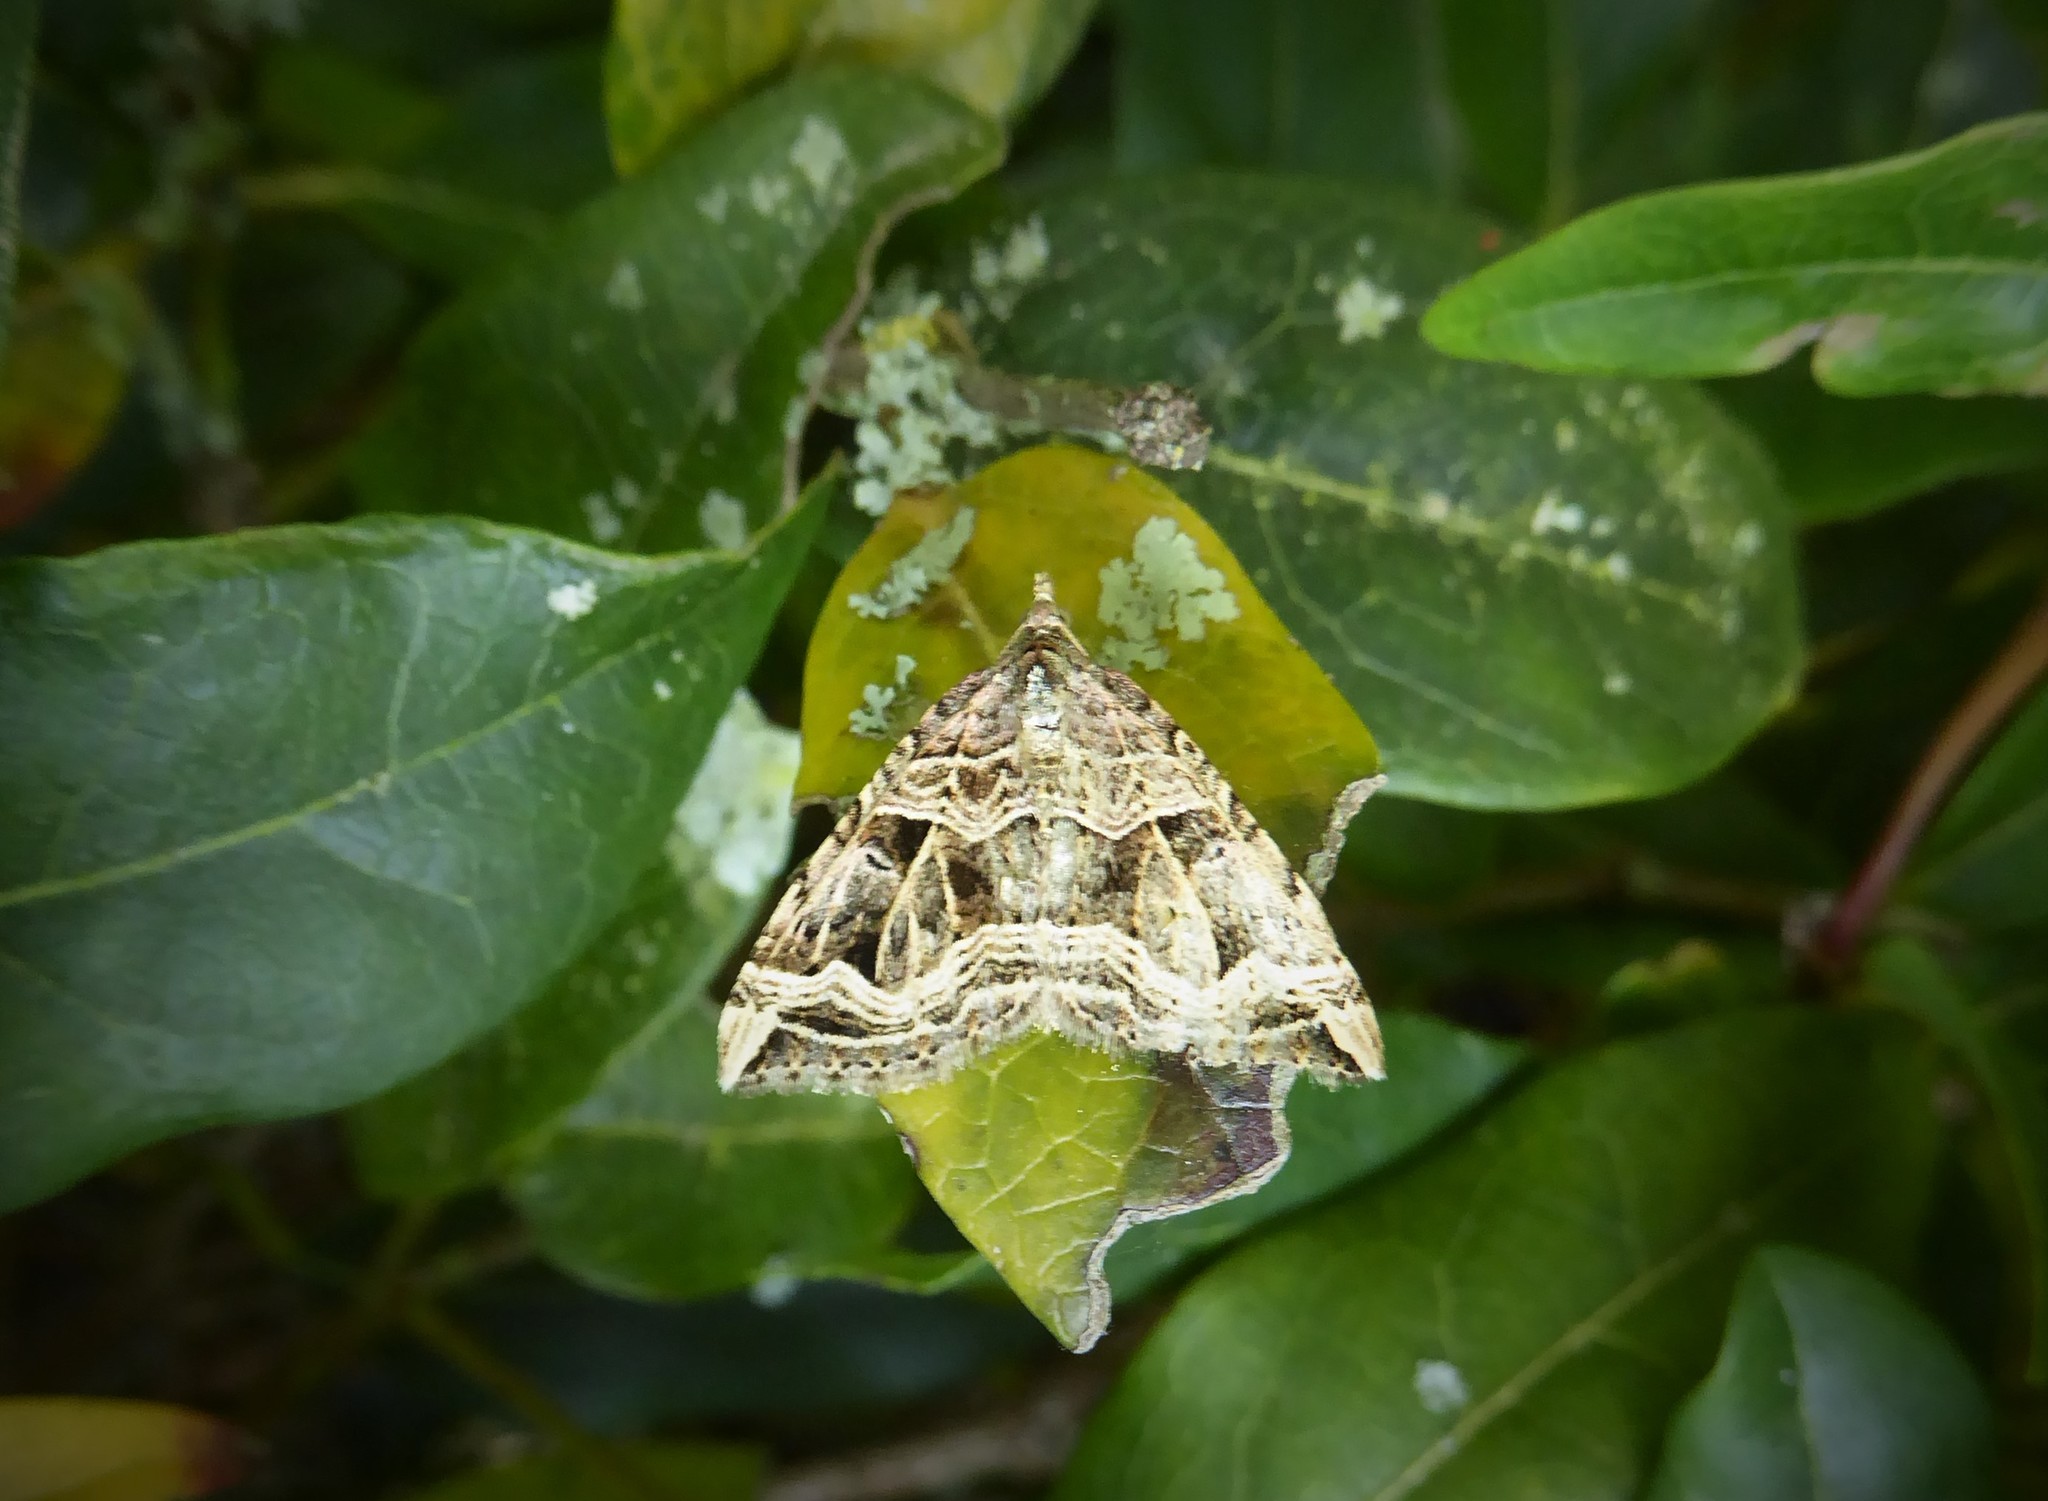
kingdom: Animalia
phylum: Arthropoda
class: Insecta
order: Lepidoptera
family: Geometridae
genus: Xanthorhoe
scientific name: Xanthorhoe semifissata
